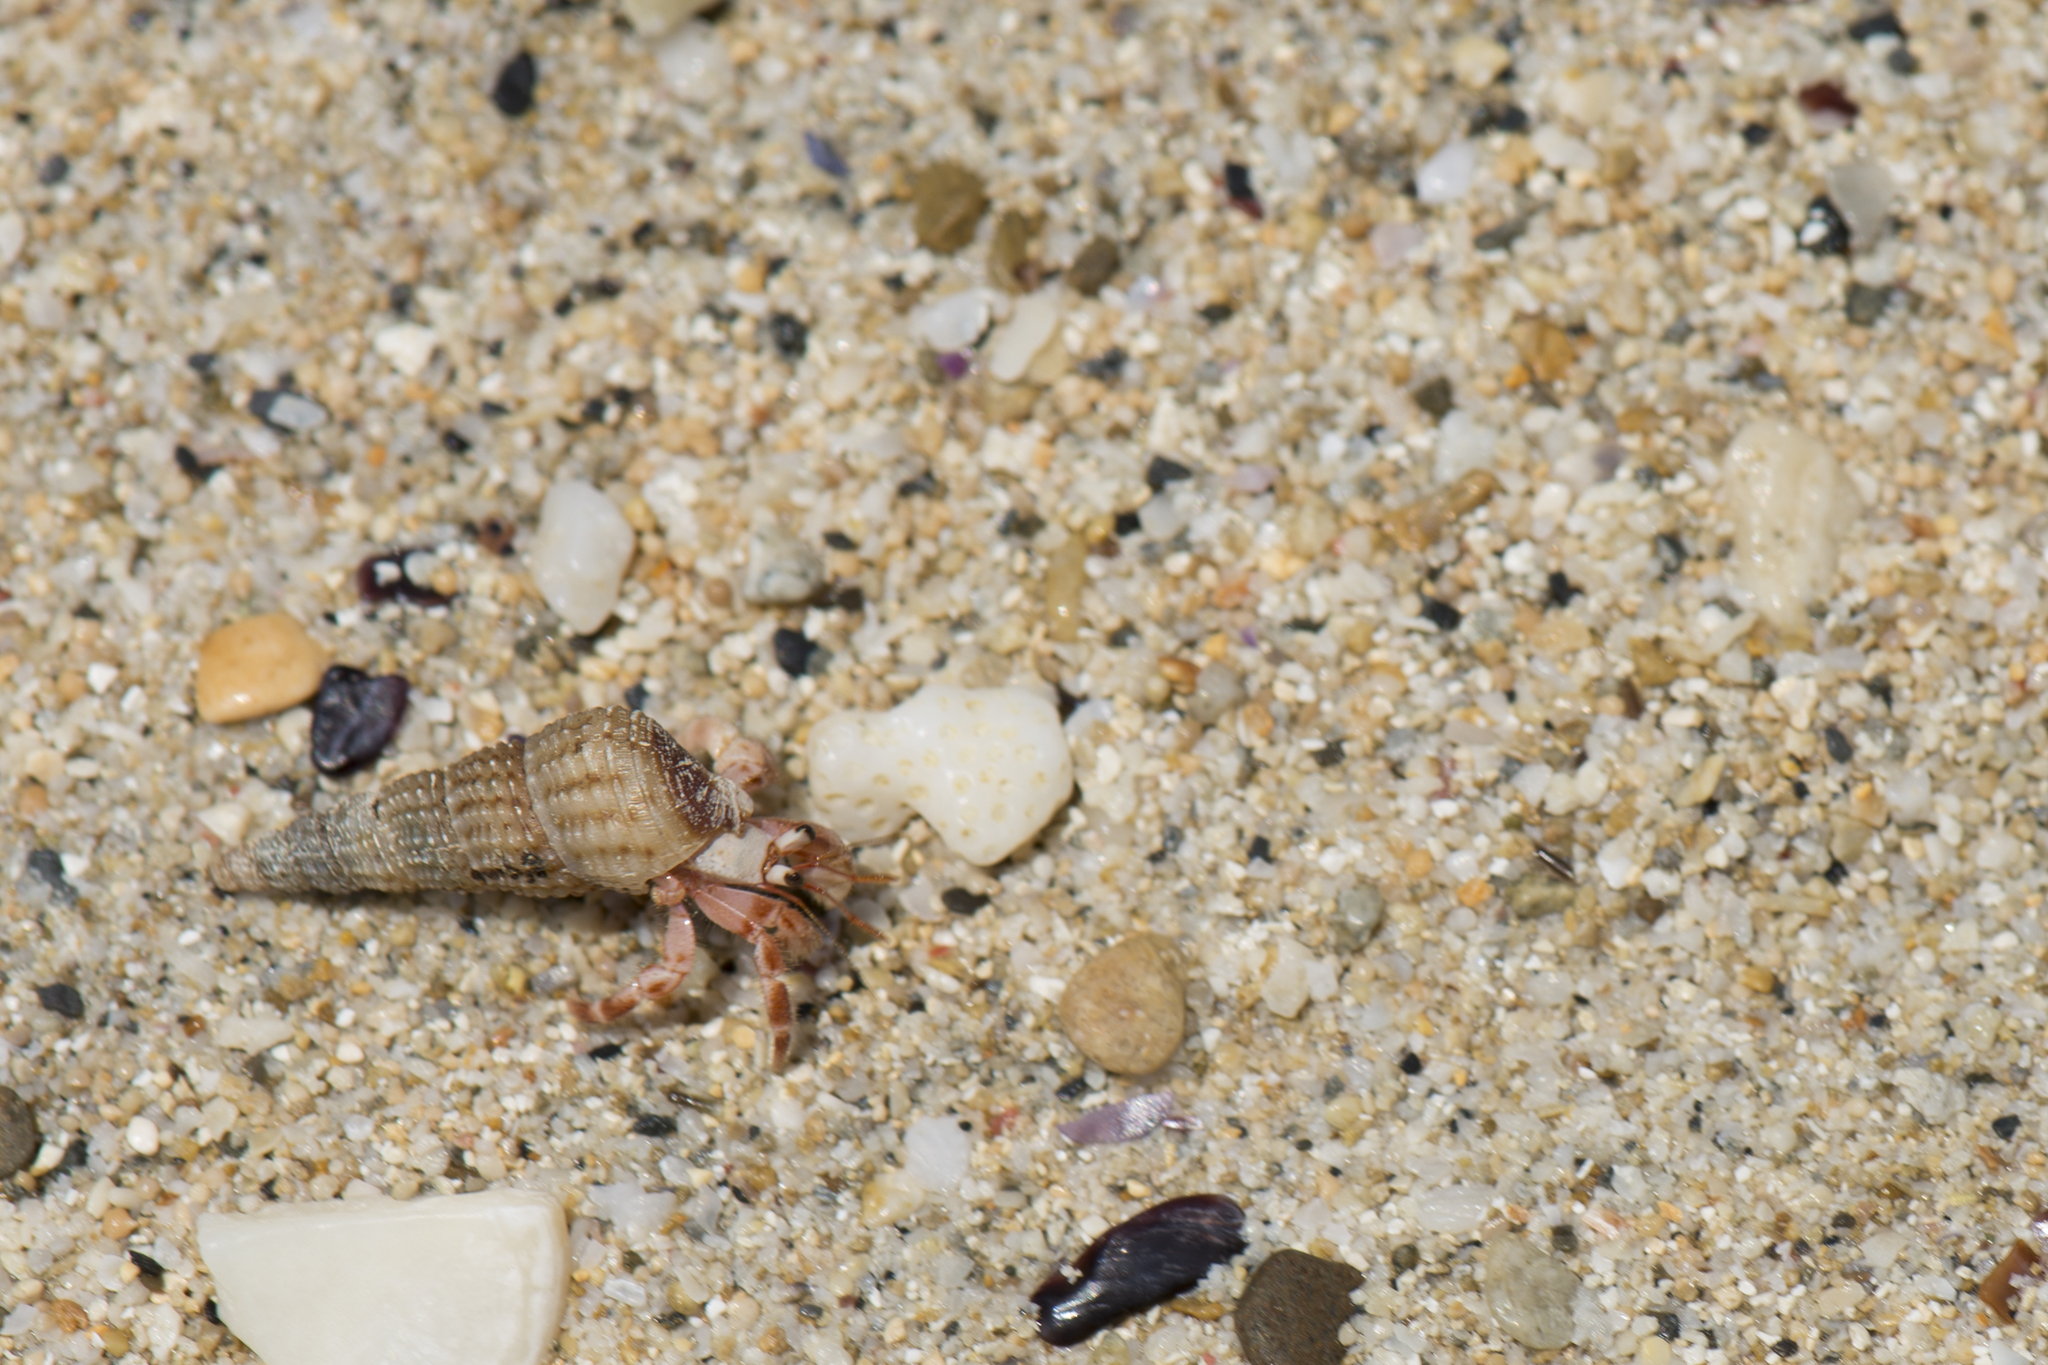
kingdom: Animalia
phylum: Arthropoda
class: Malacostraca
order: Decapoda
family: Coenobitidae
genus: Coenobita
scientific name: Coenobita rugosus
